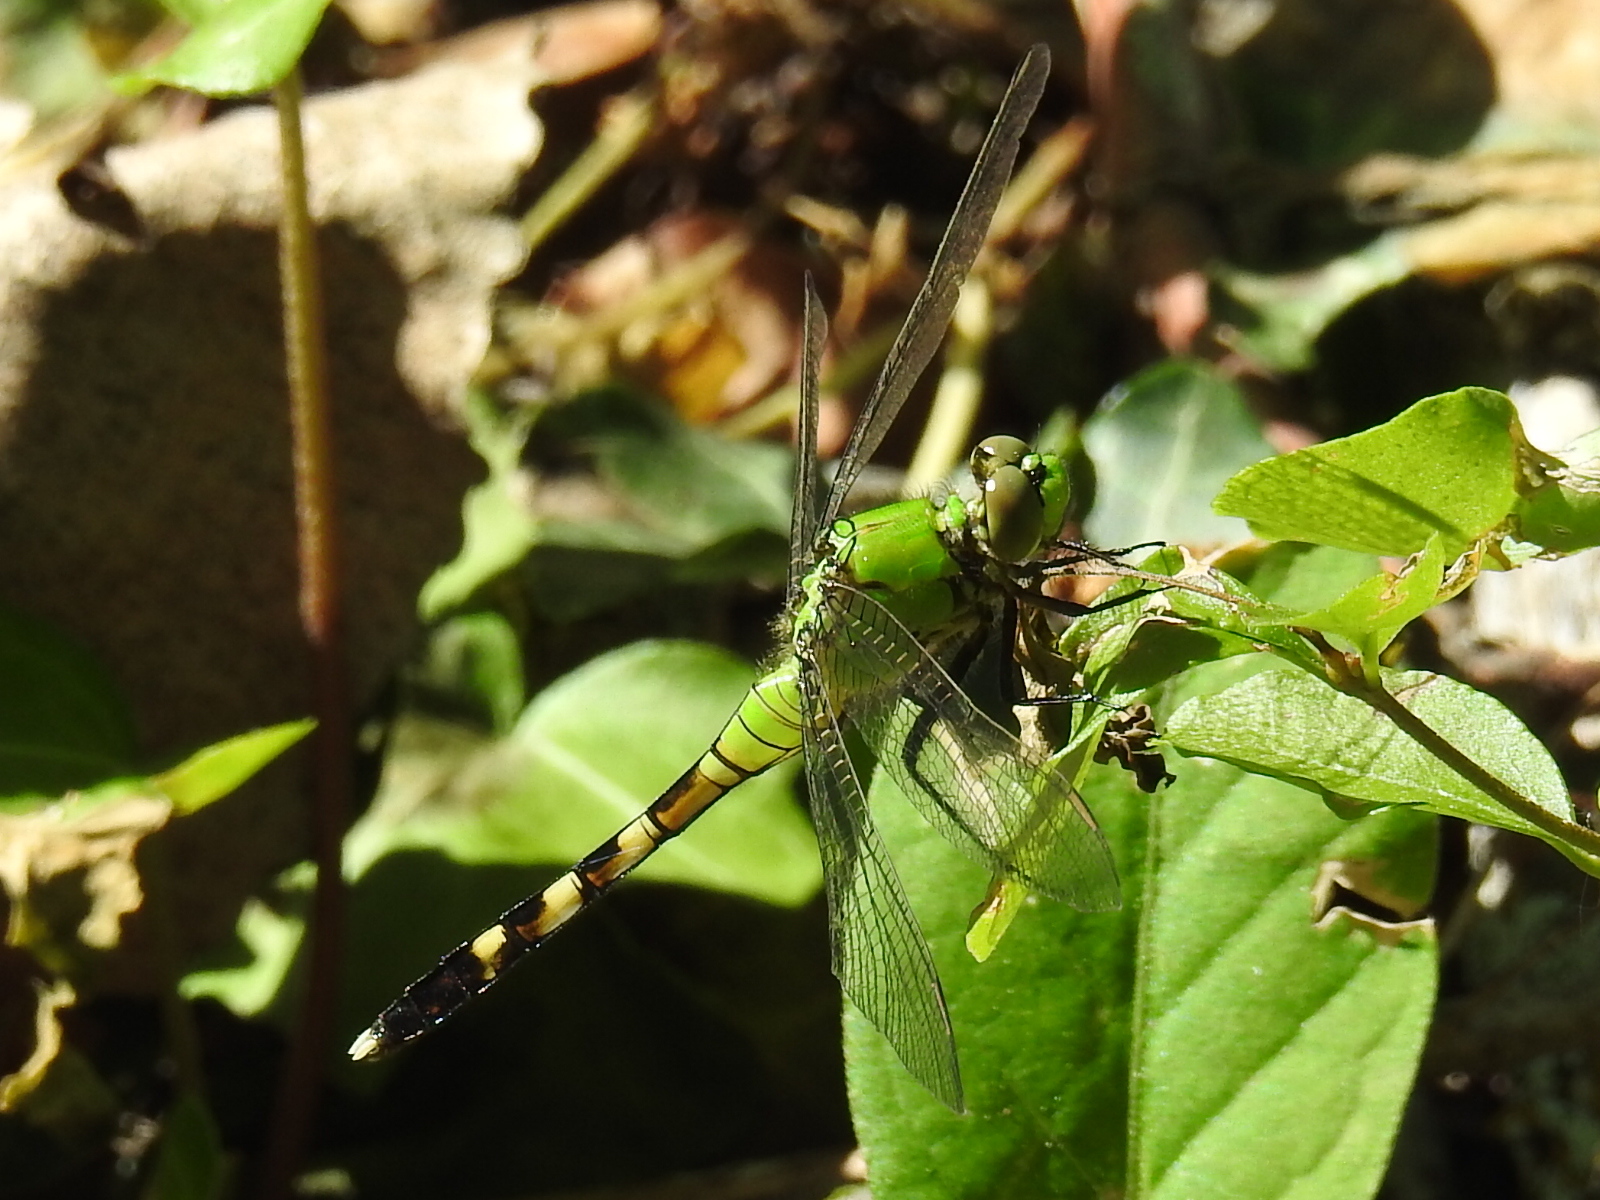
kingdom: Animalia
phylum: Arthropoda
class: Insecta
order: Odonata
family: Libellulidae
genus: Erythemis
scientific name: Erythemis simplicicollis
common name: Eastern pondhawk
